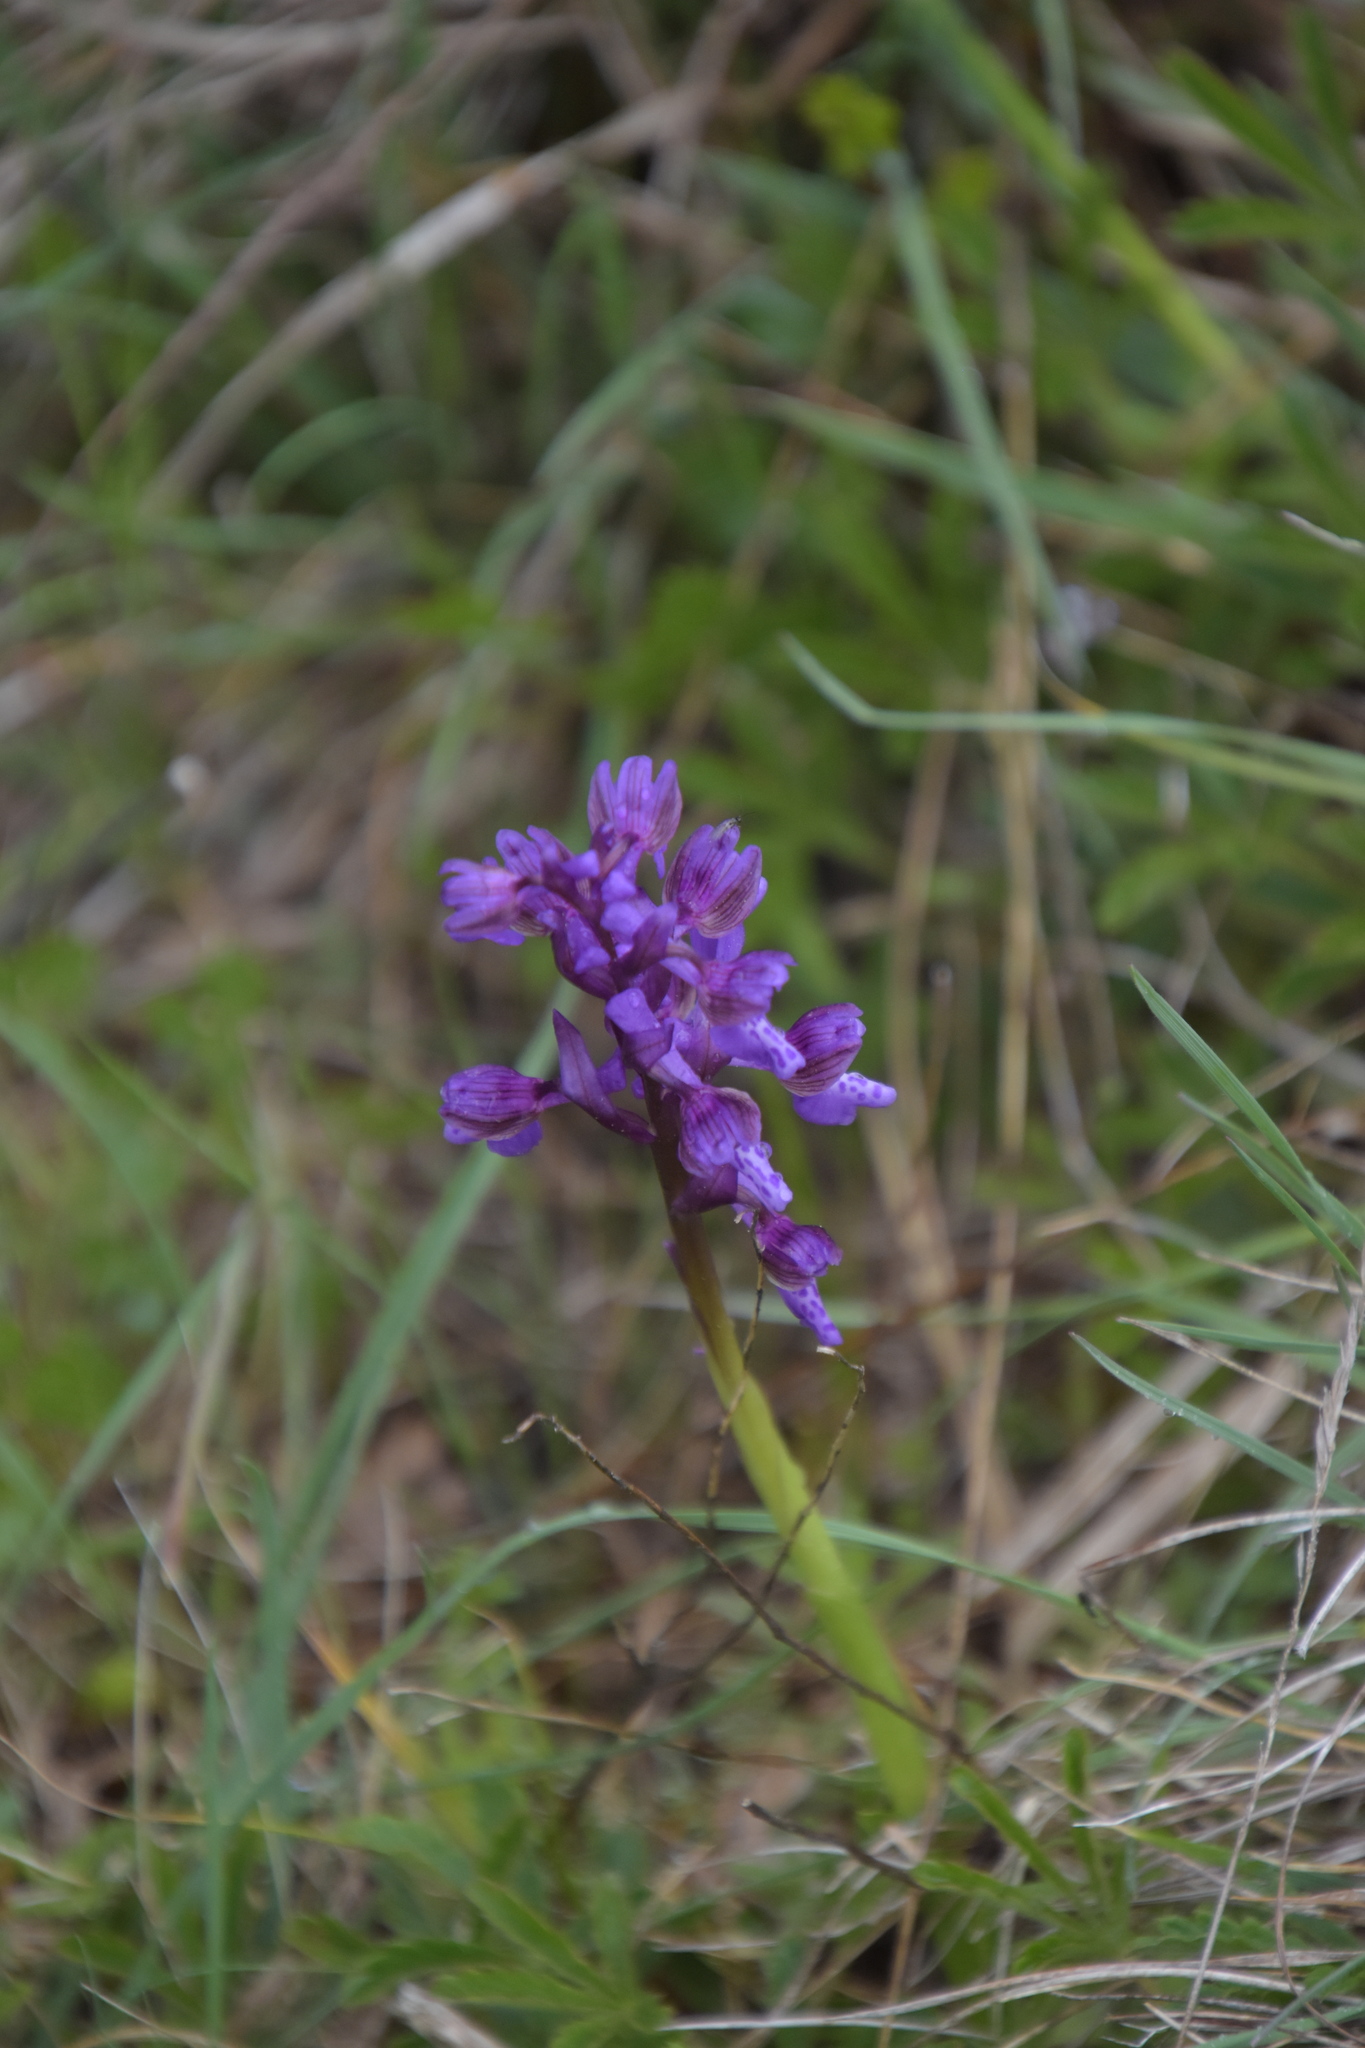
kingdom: Plantae
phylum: Tracheophyta
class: Liliopsida
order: Asparagales
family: Orchidaceae
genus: Anacamptis
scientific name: Anacamptis morio
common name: Green-winged orchid
